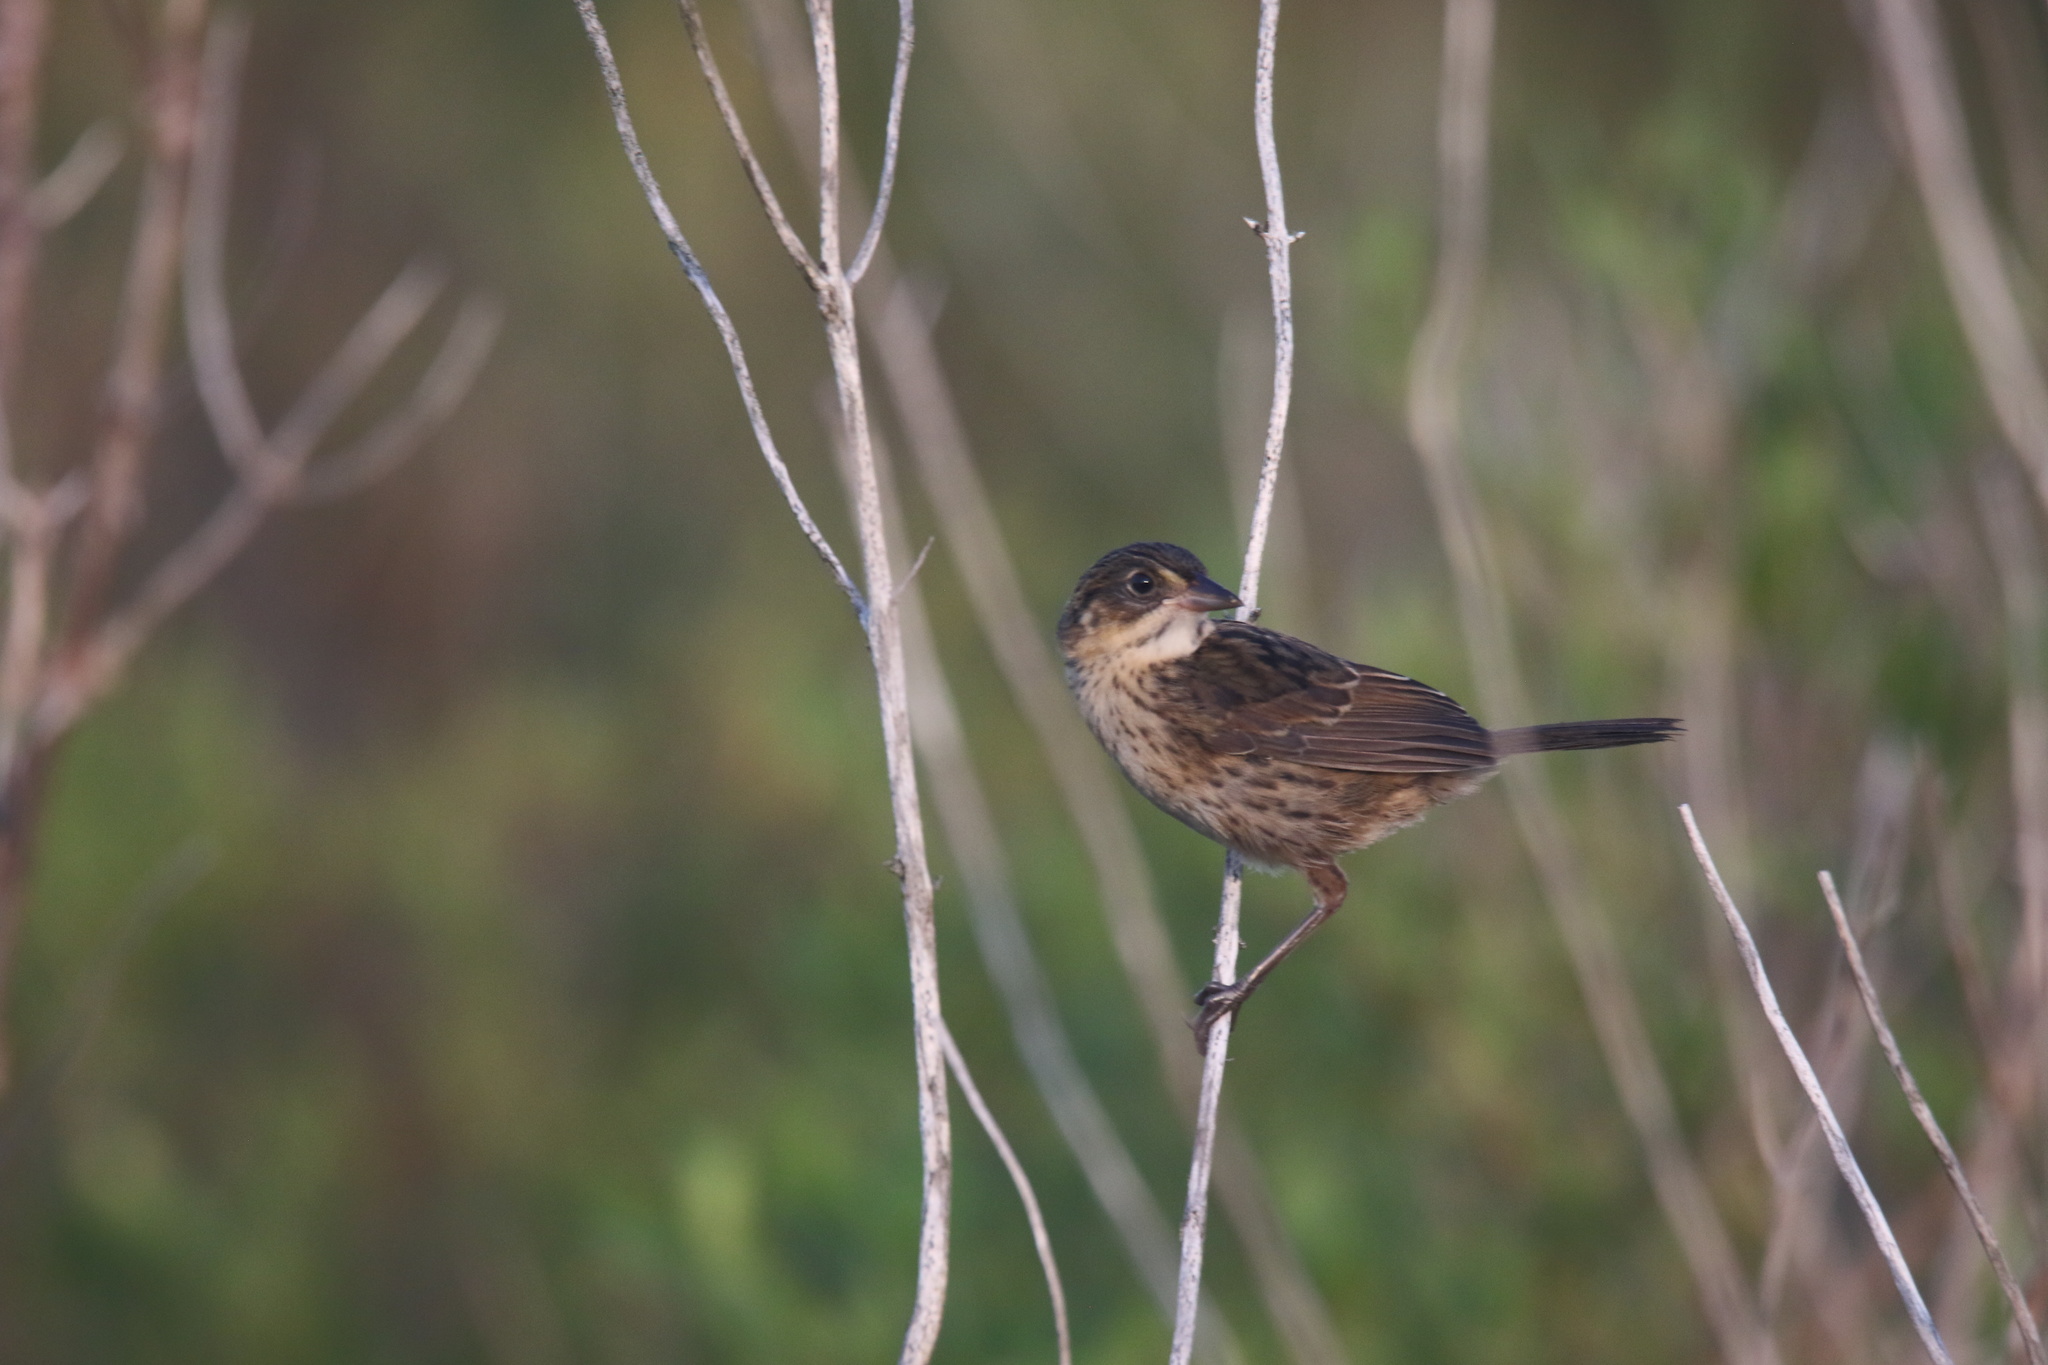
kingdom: Animalia
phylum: Chordata
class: Aves
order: Passeriformes
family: Passerellidae
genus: Ammospiza
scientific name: Ammospiza maritima
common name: Seaside sparrow
